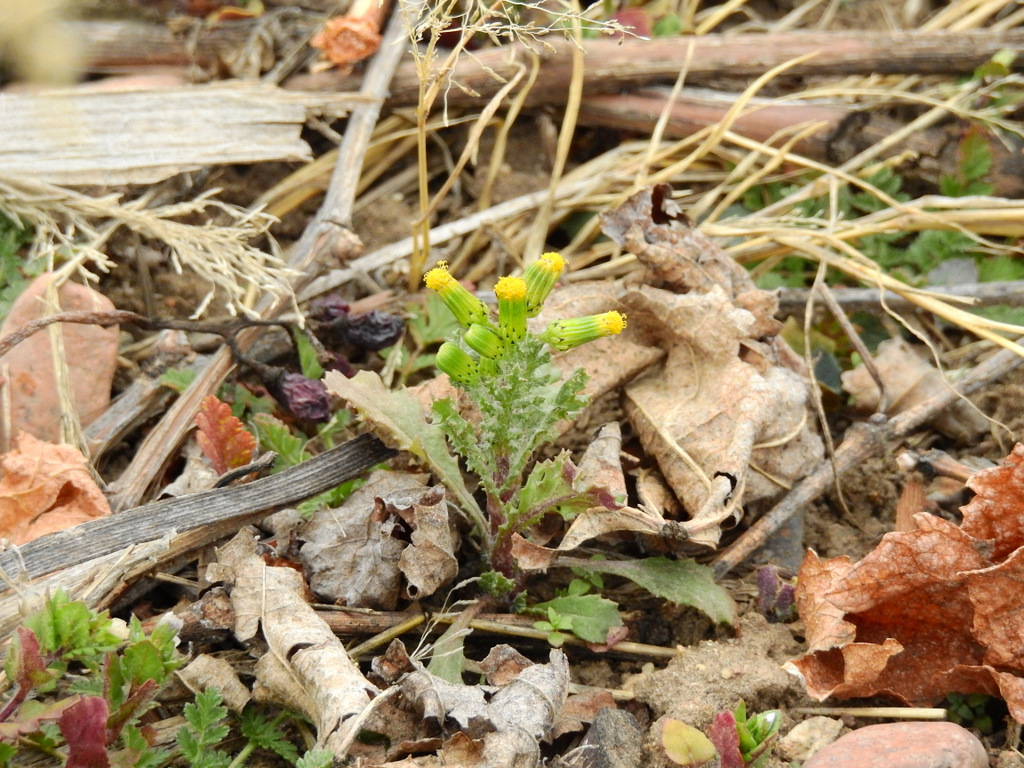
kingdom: Plantae
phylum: Tracheophyta
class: Magnoliopsida
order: Asterales
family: Asteraceae
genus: Senecio
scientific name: Senecio vulgaris
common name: Old-man-in-the-spring
